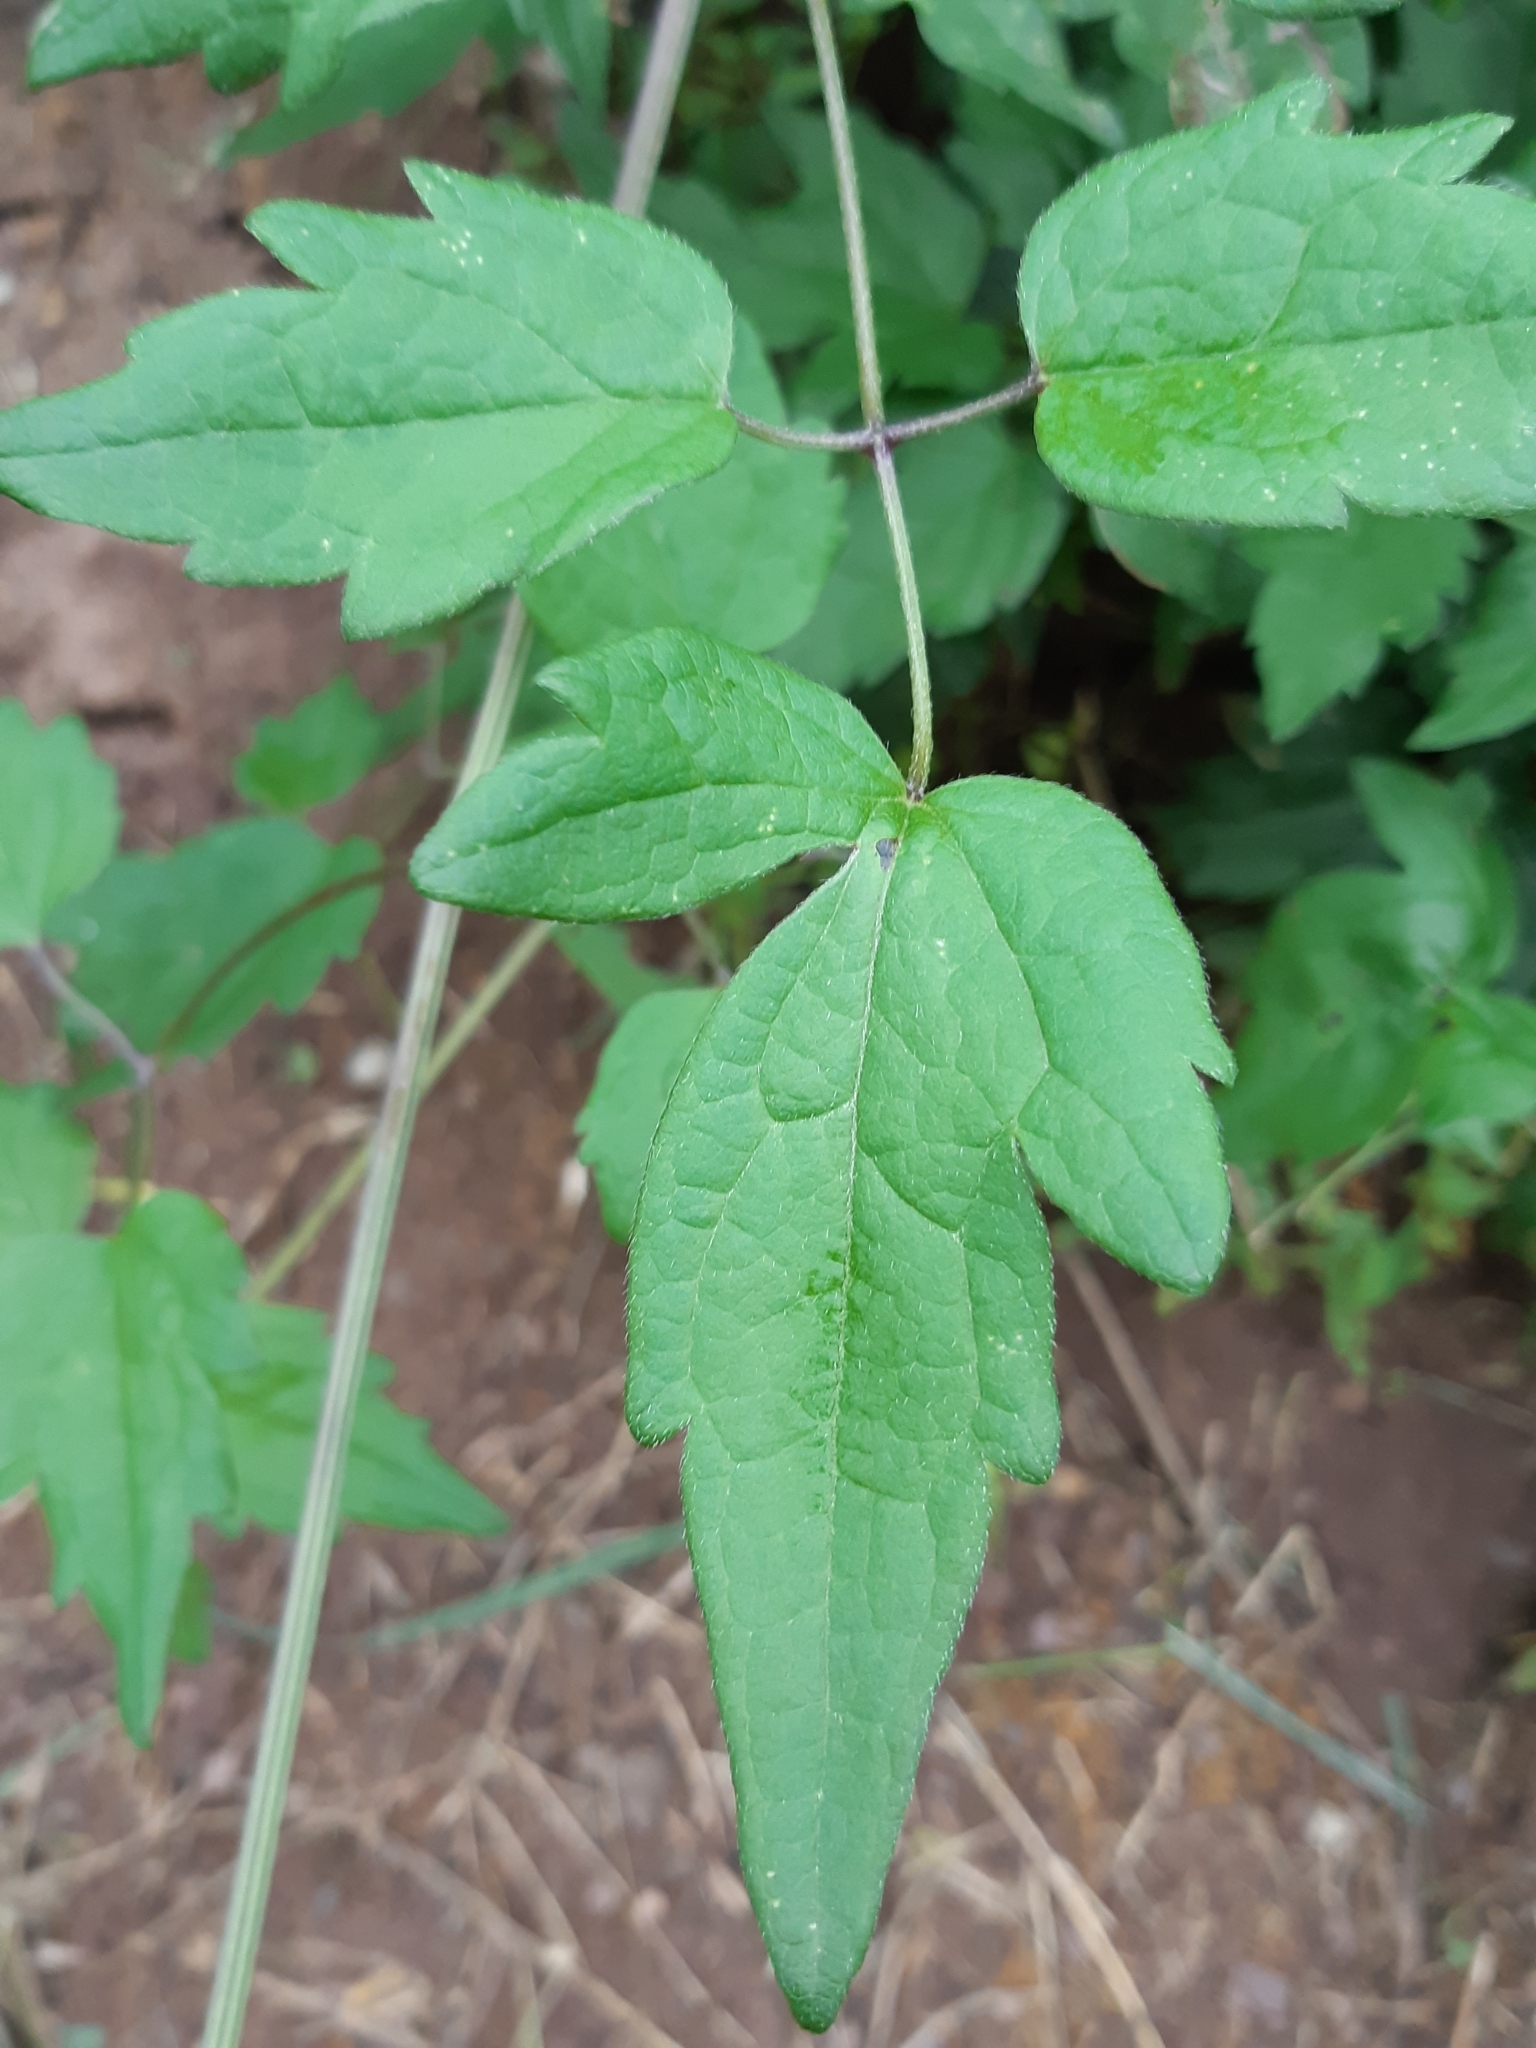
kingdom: Plantae
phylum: Tracheophyta
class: Magnoliopsida
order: Ranunculales
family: Ranunculaceae
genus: Clematis
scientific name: Clematis vitalba
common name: Evergreen clematis
